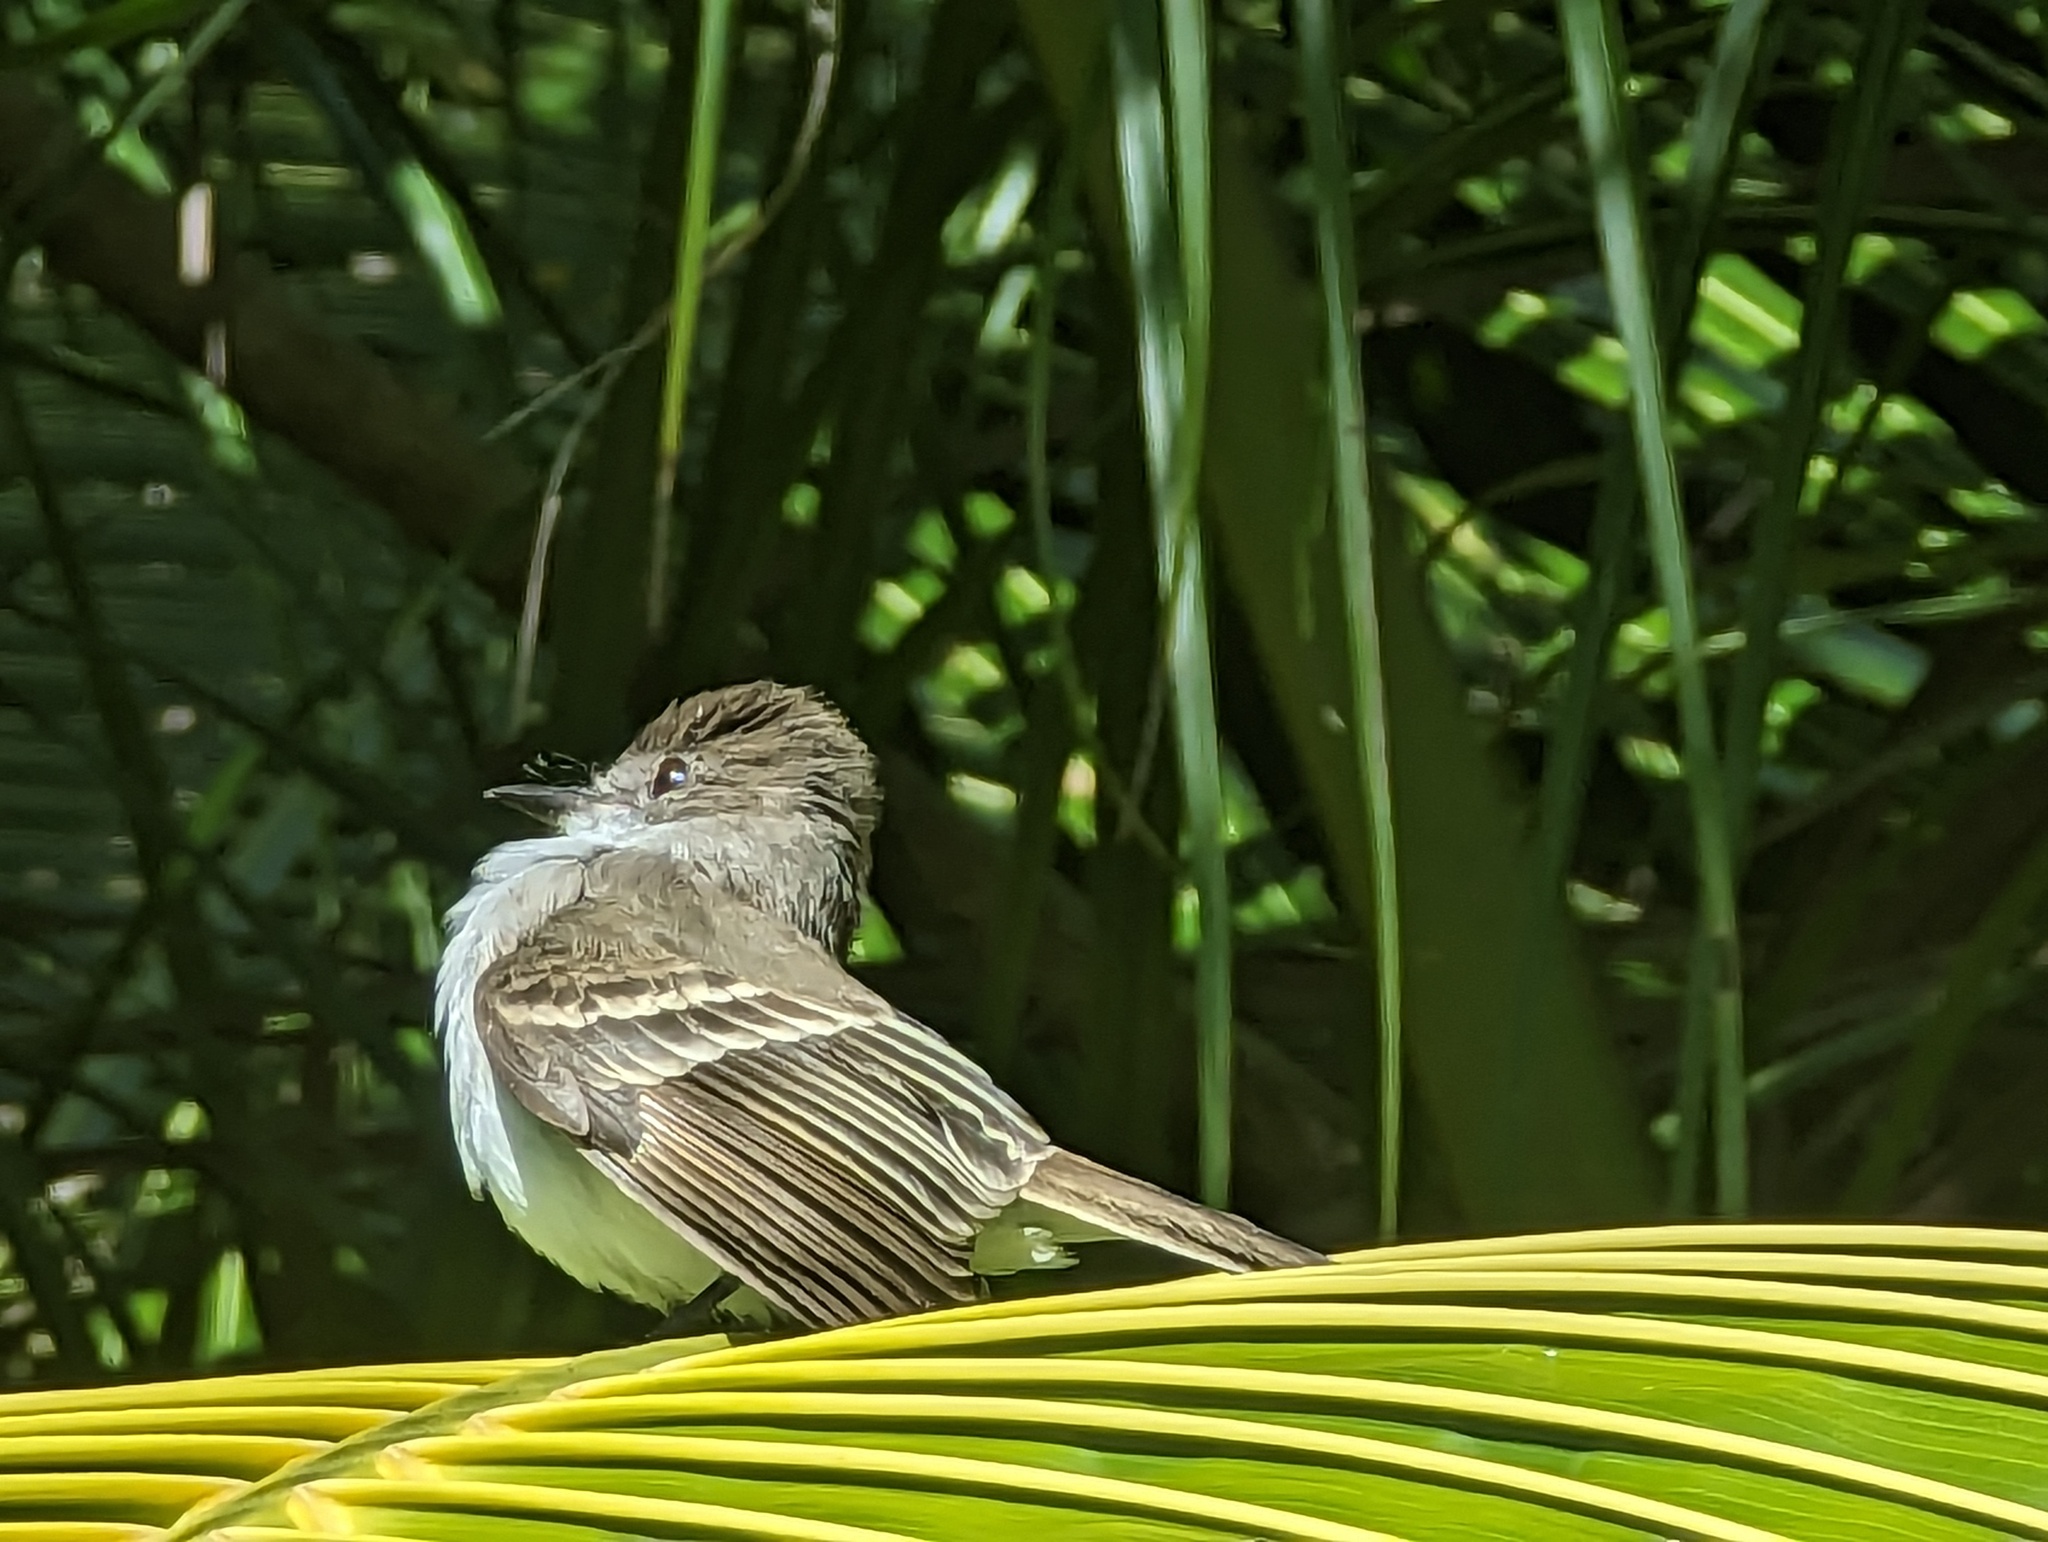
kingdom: Animalia
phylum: Chordata
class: Aves
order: Passeriformes
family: Tyrannidae
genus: Myiarchus
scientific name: Myiarchus antillarum
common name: Puerto rican flycatcher
